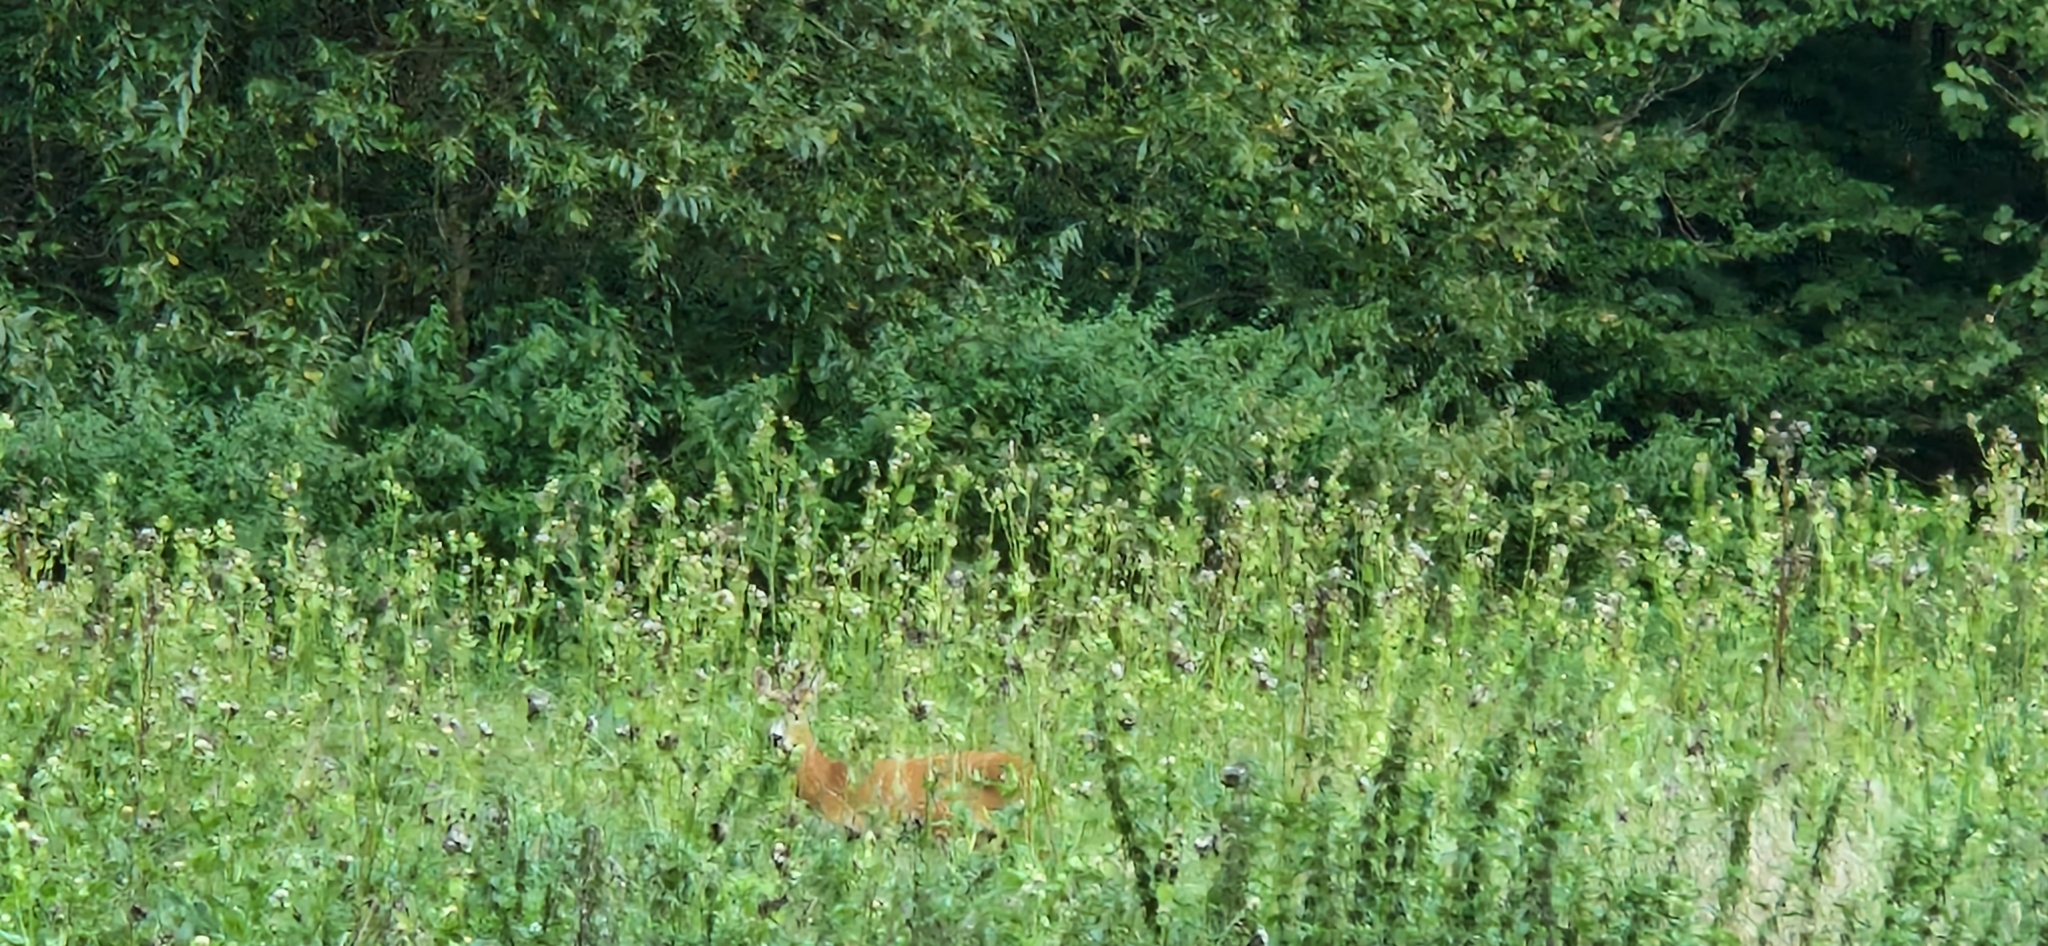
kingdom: Animalia
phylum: Chordata
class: Mammalia
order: Artiodactyla
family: Cervidae
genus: Capreolus
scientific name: Capreolus capreolus
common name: Western roe deer
